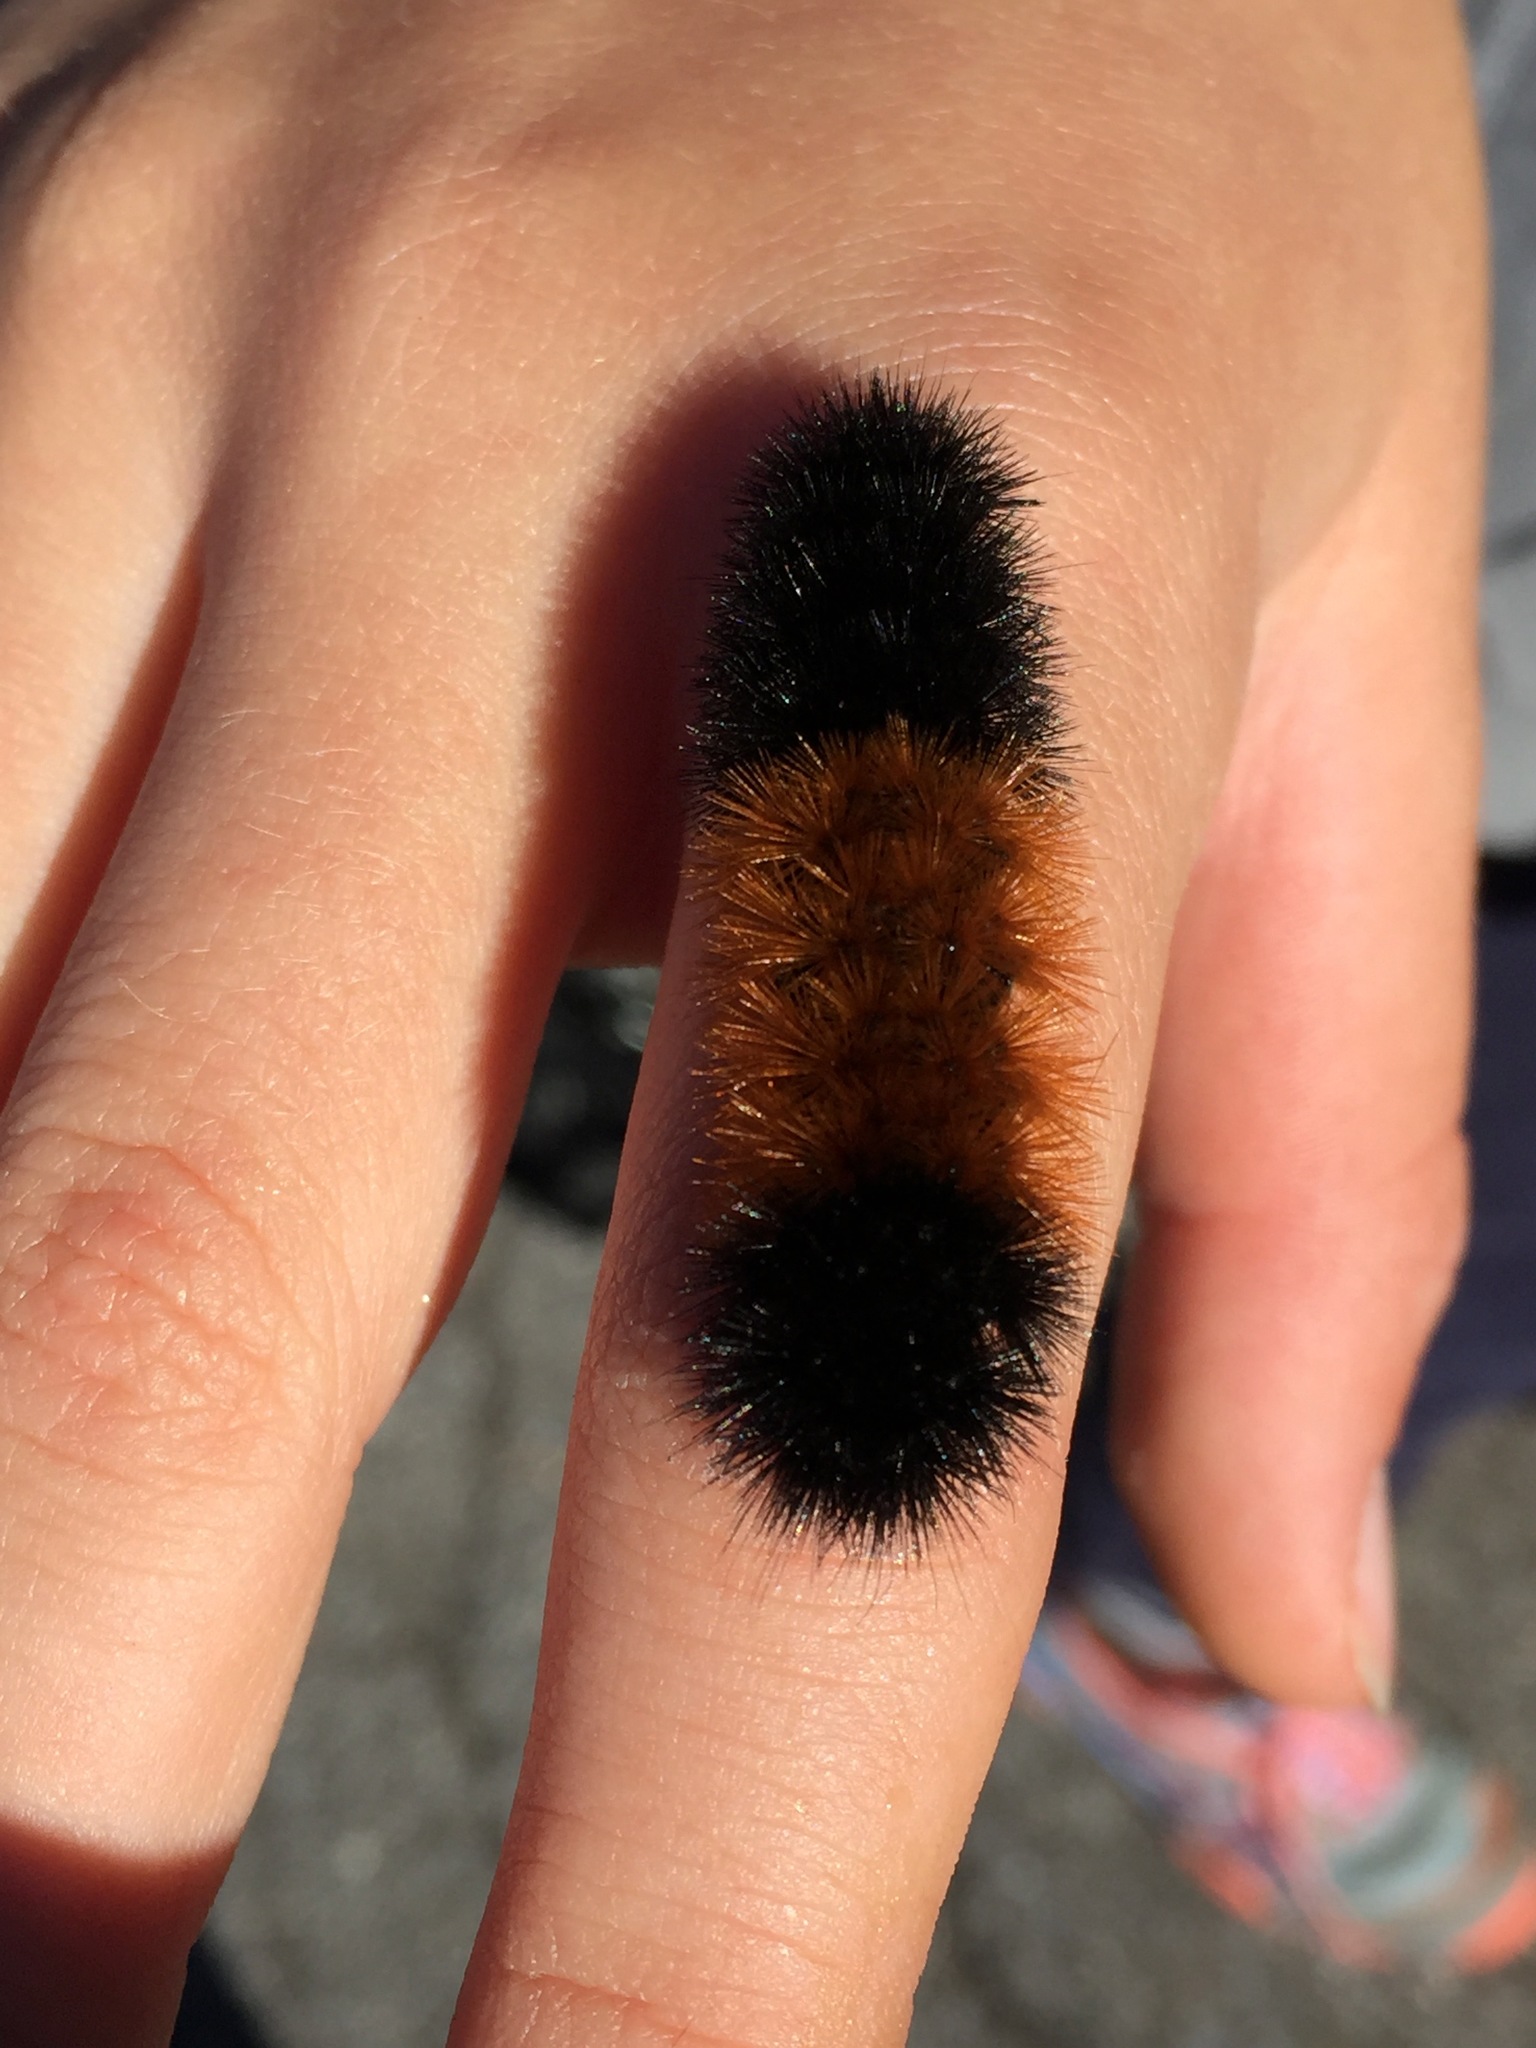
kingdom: Animalia
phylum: Arthropoda
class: Insecta
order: Lepidoptera
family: Erebidae
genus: Pyrrharctia
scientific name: Pyrrharctia isabella
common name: Isabella tiger moth
